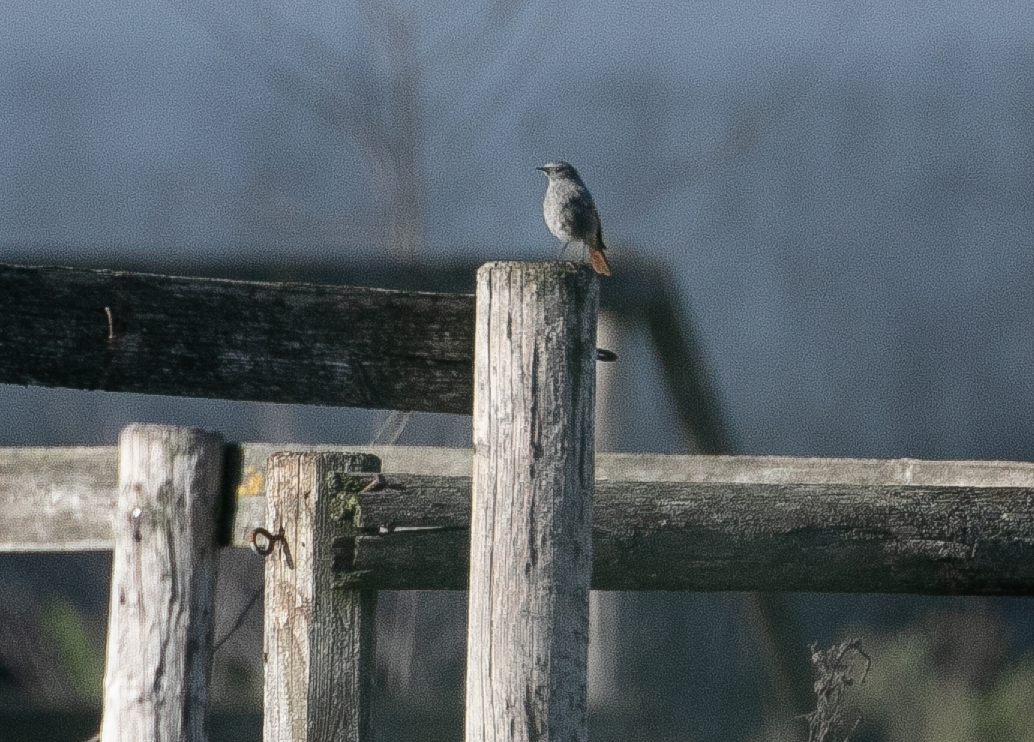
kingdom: Animalia
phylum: Chordata
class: Aves
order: Passeriformes
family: Muscicapidae
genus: Phoenicurus
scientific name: Phoenicurus ochruros
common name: Black redstart
